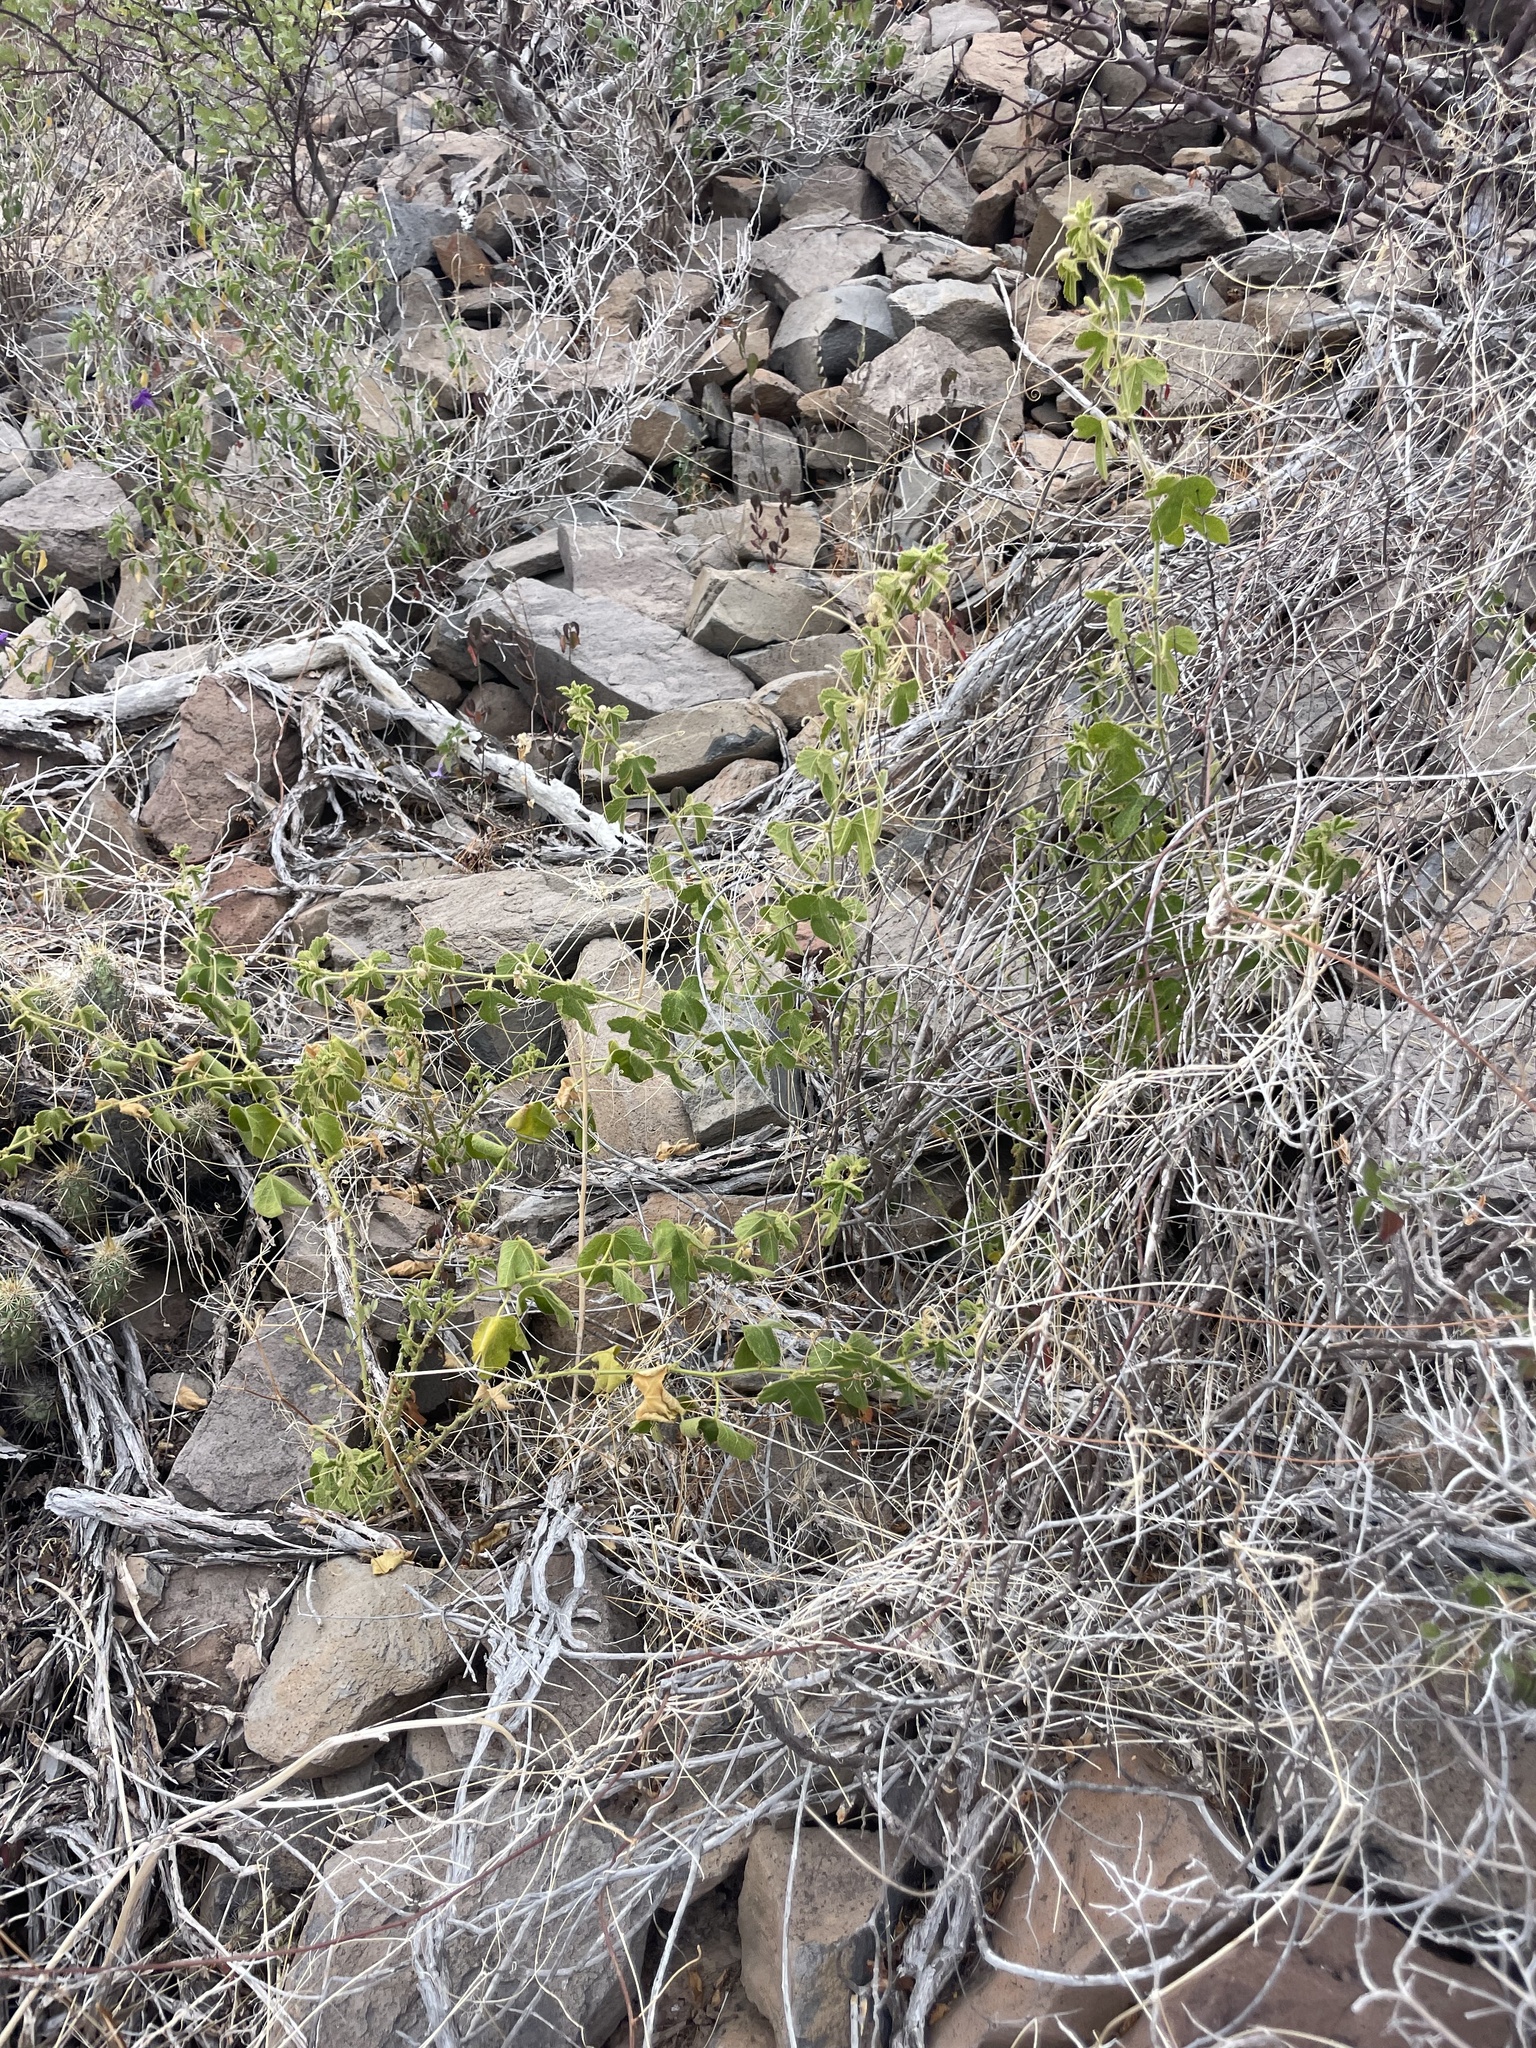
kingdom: Plantae
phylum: Tracheophyta
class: Magnoliopsida
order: Malpighiales
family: Passifloraceae
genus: Passiflora
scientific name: Passiflora palmeri
